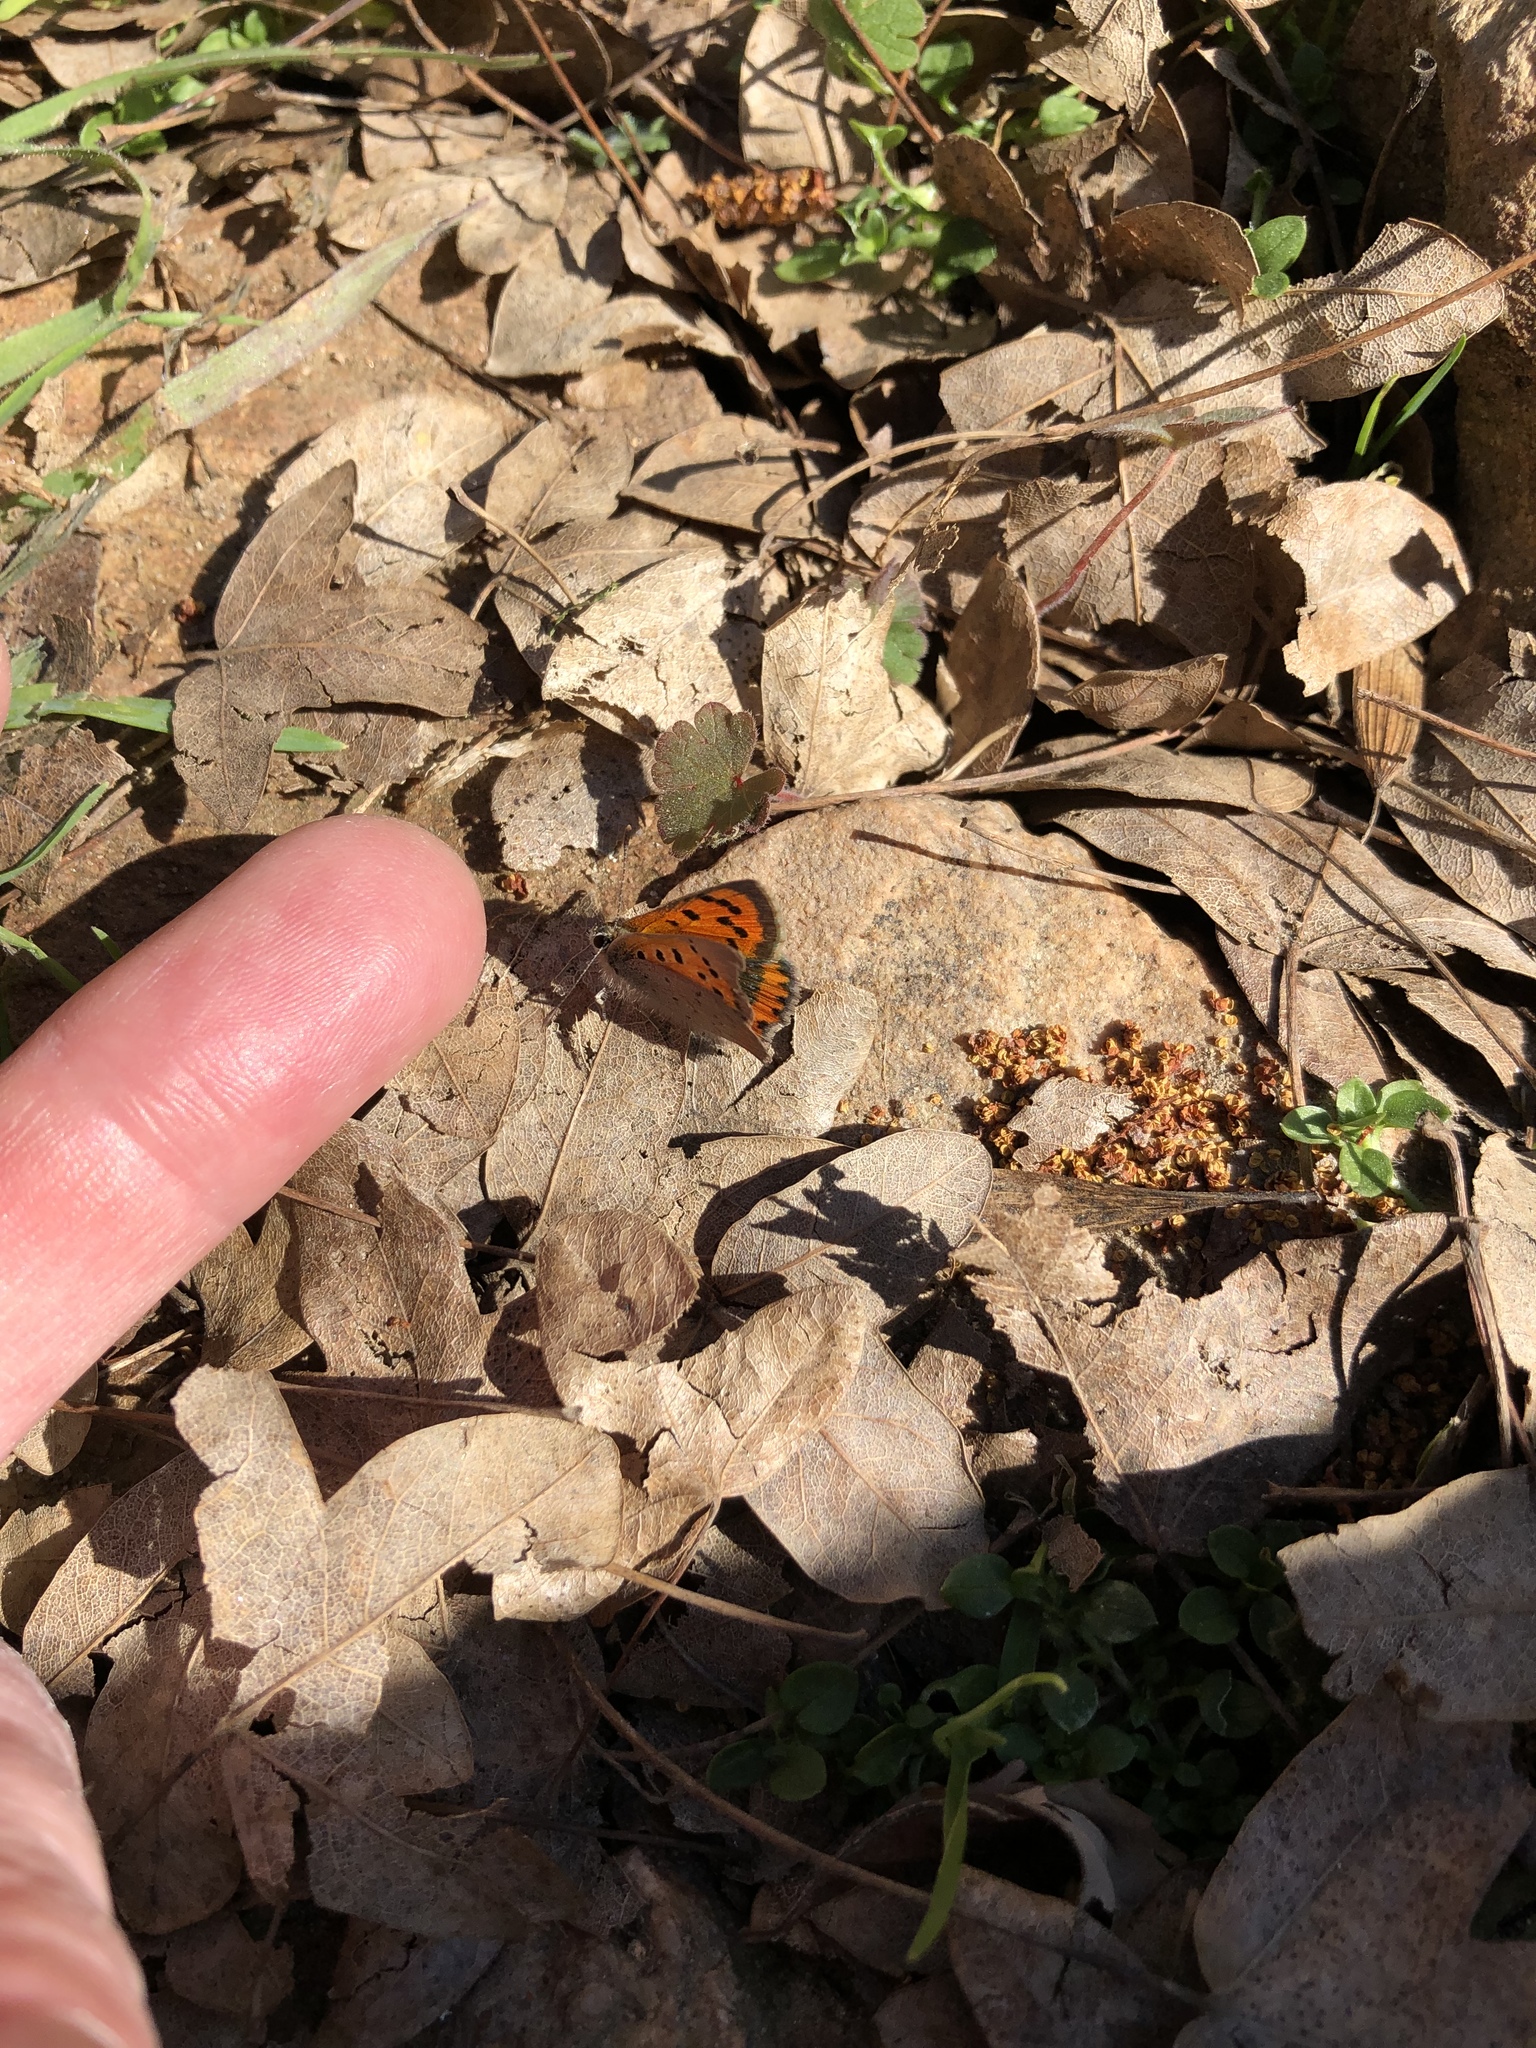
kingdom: Animalia
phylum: Arthropoda
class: Insecta
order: Lepidoptera
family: Lycaenidae
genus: Lycaena
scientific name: Lycaena phlaeas
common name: Small copper
